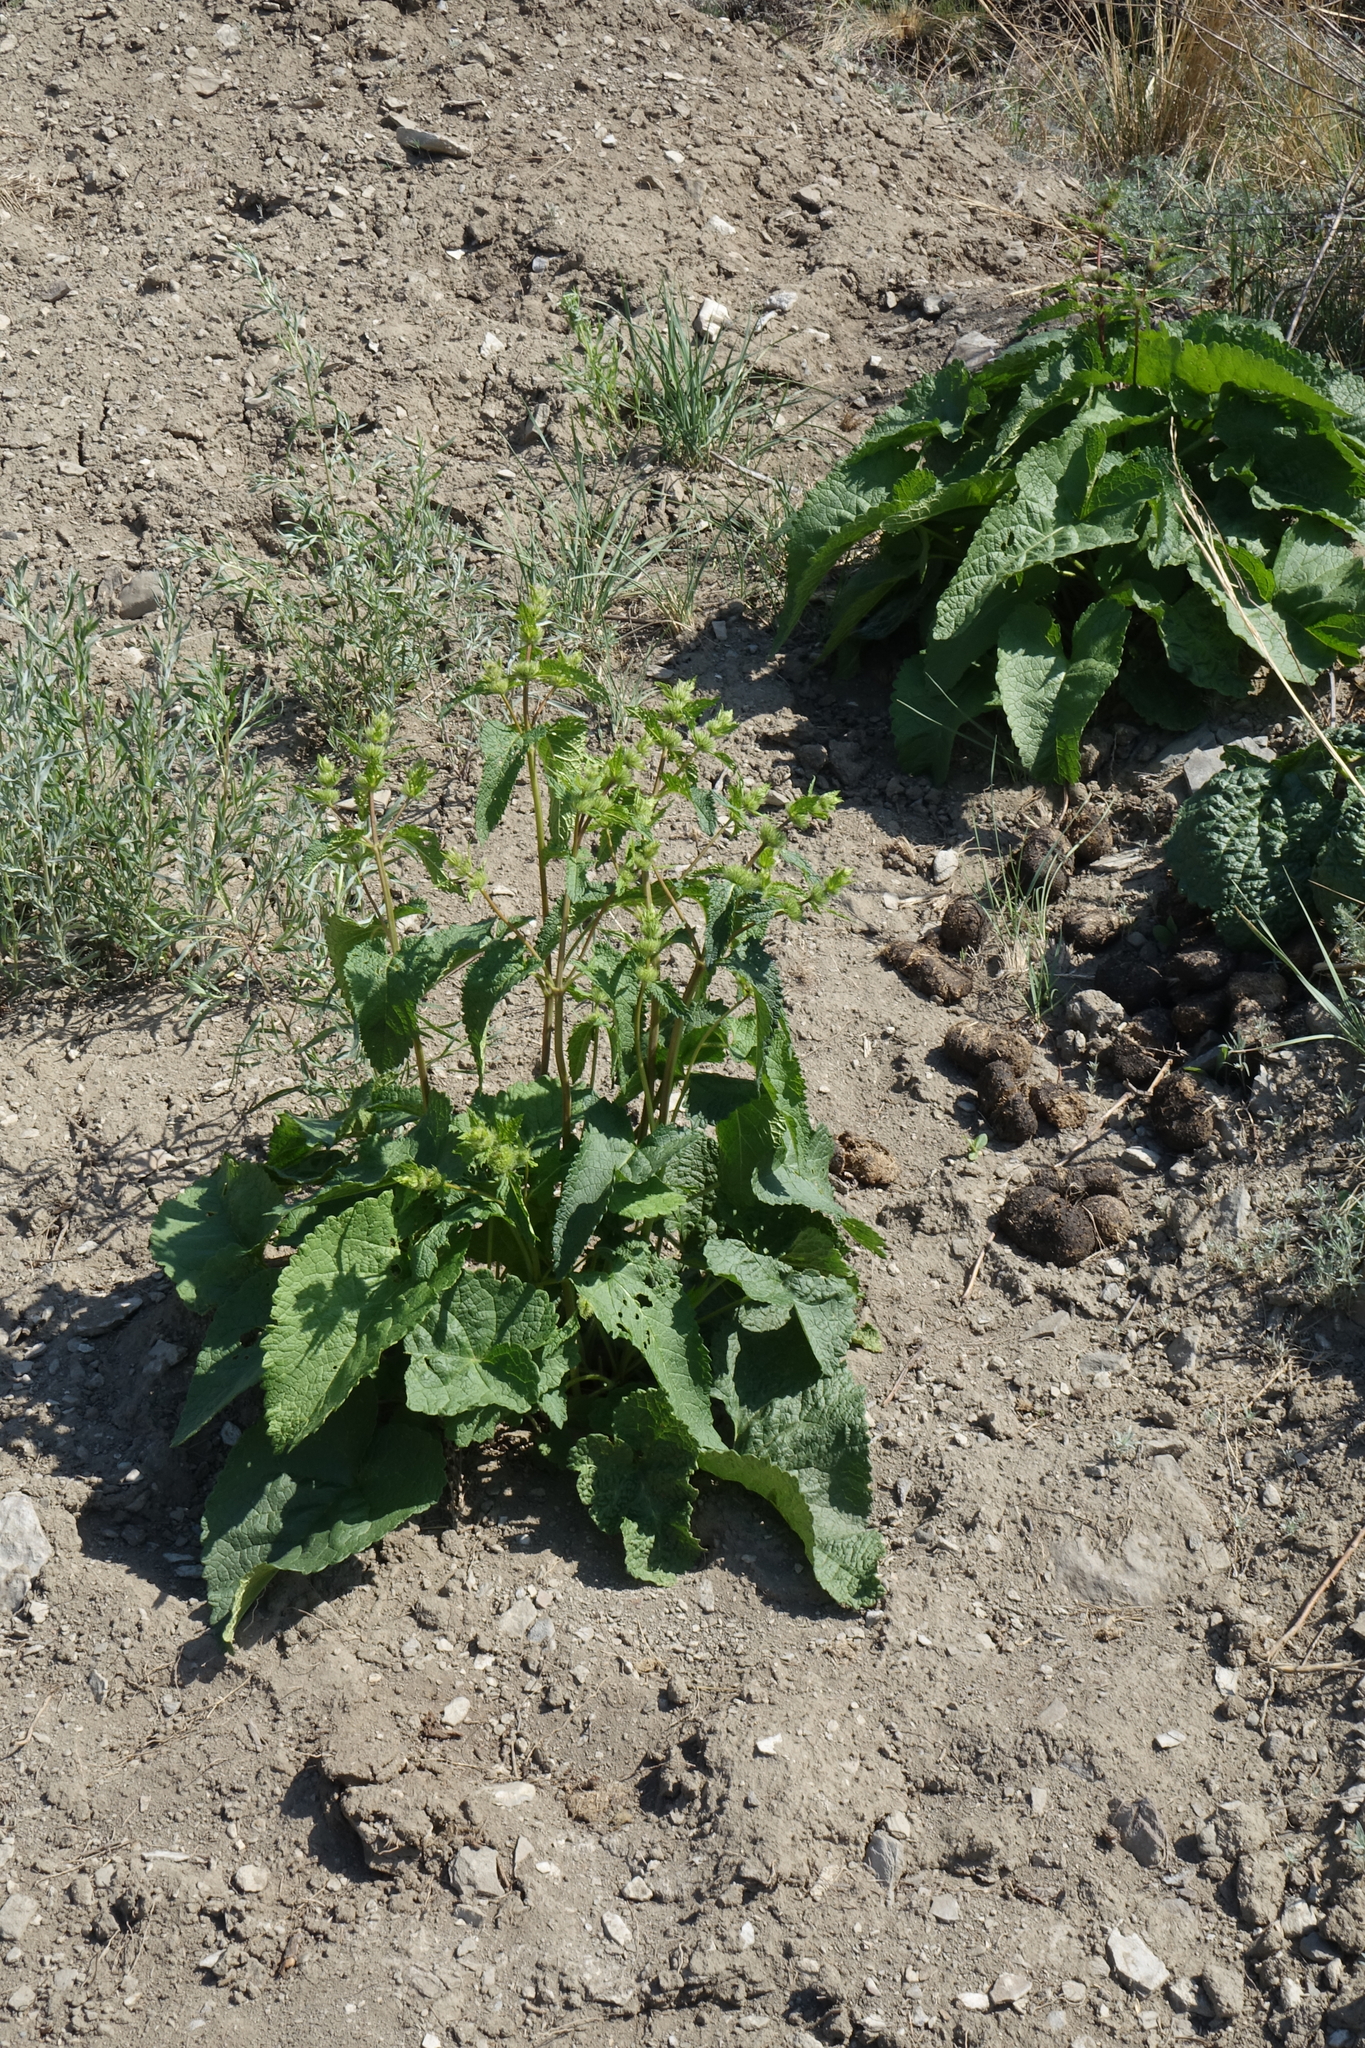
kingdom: Plantae
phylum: Tracheophyta
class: Magnoliopsida
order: Lamiales
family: Lamiaceae
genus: Phlomoides
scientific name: Phlomoides tuberosa
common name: Tuberous jerusalem sage
